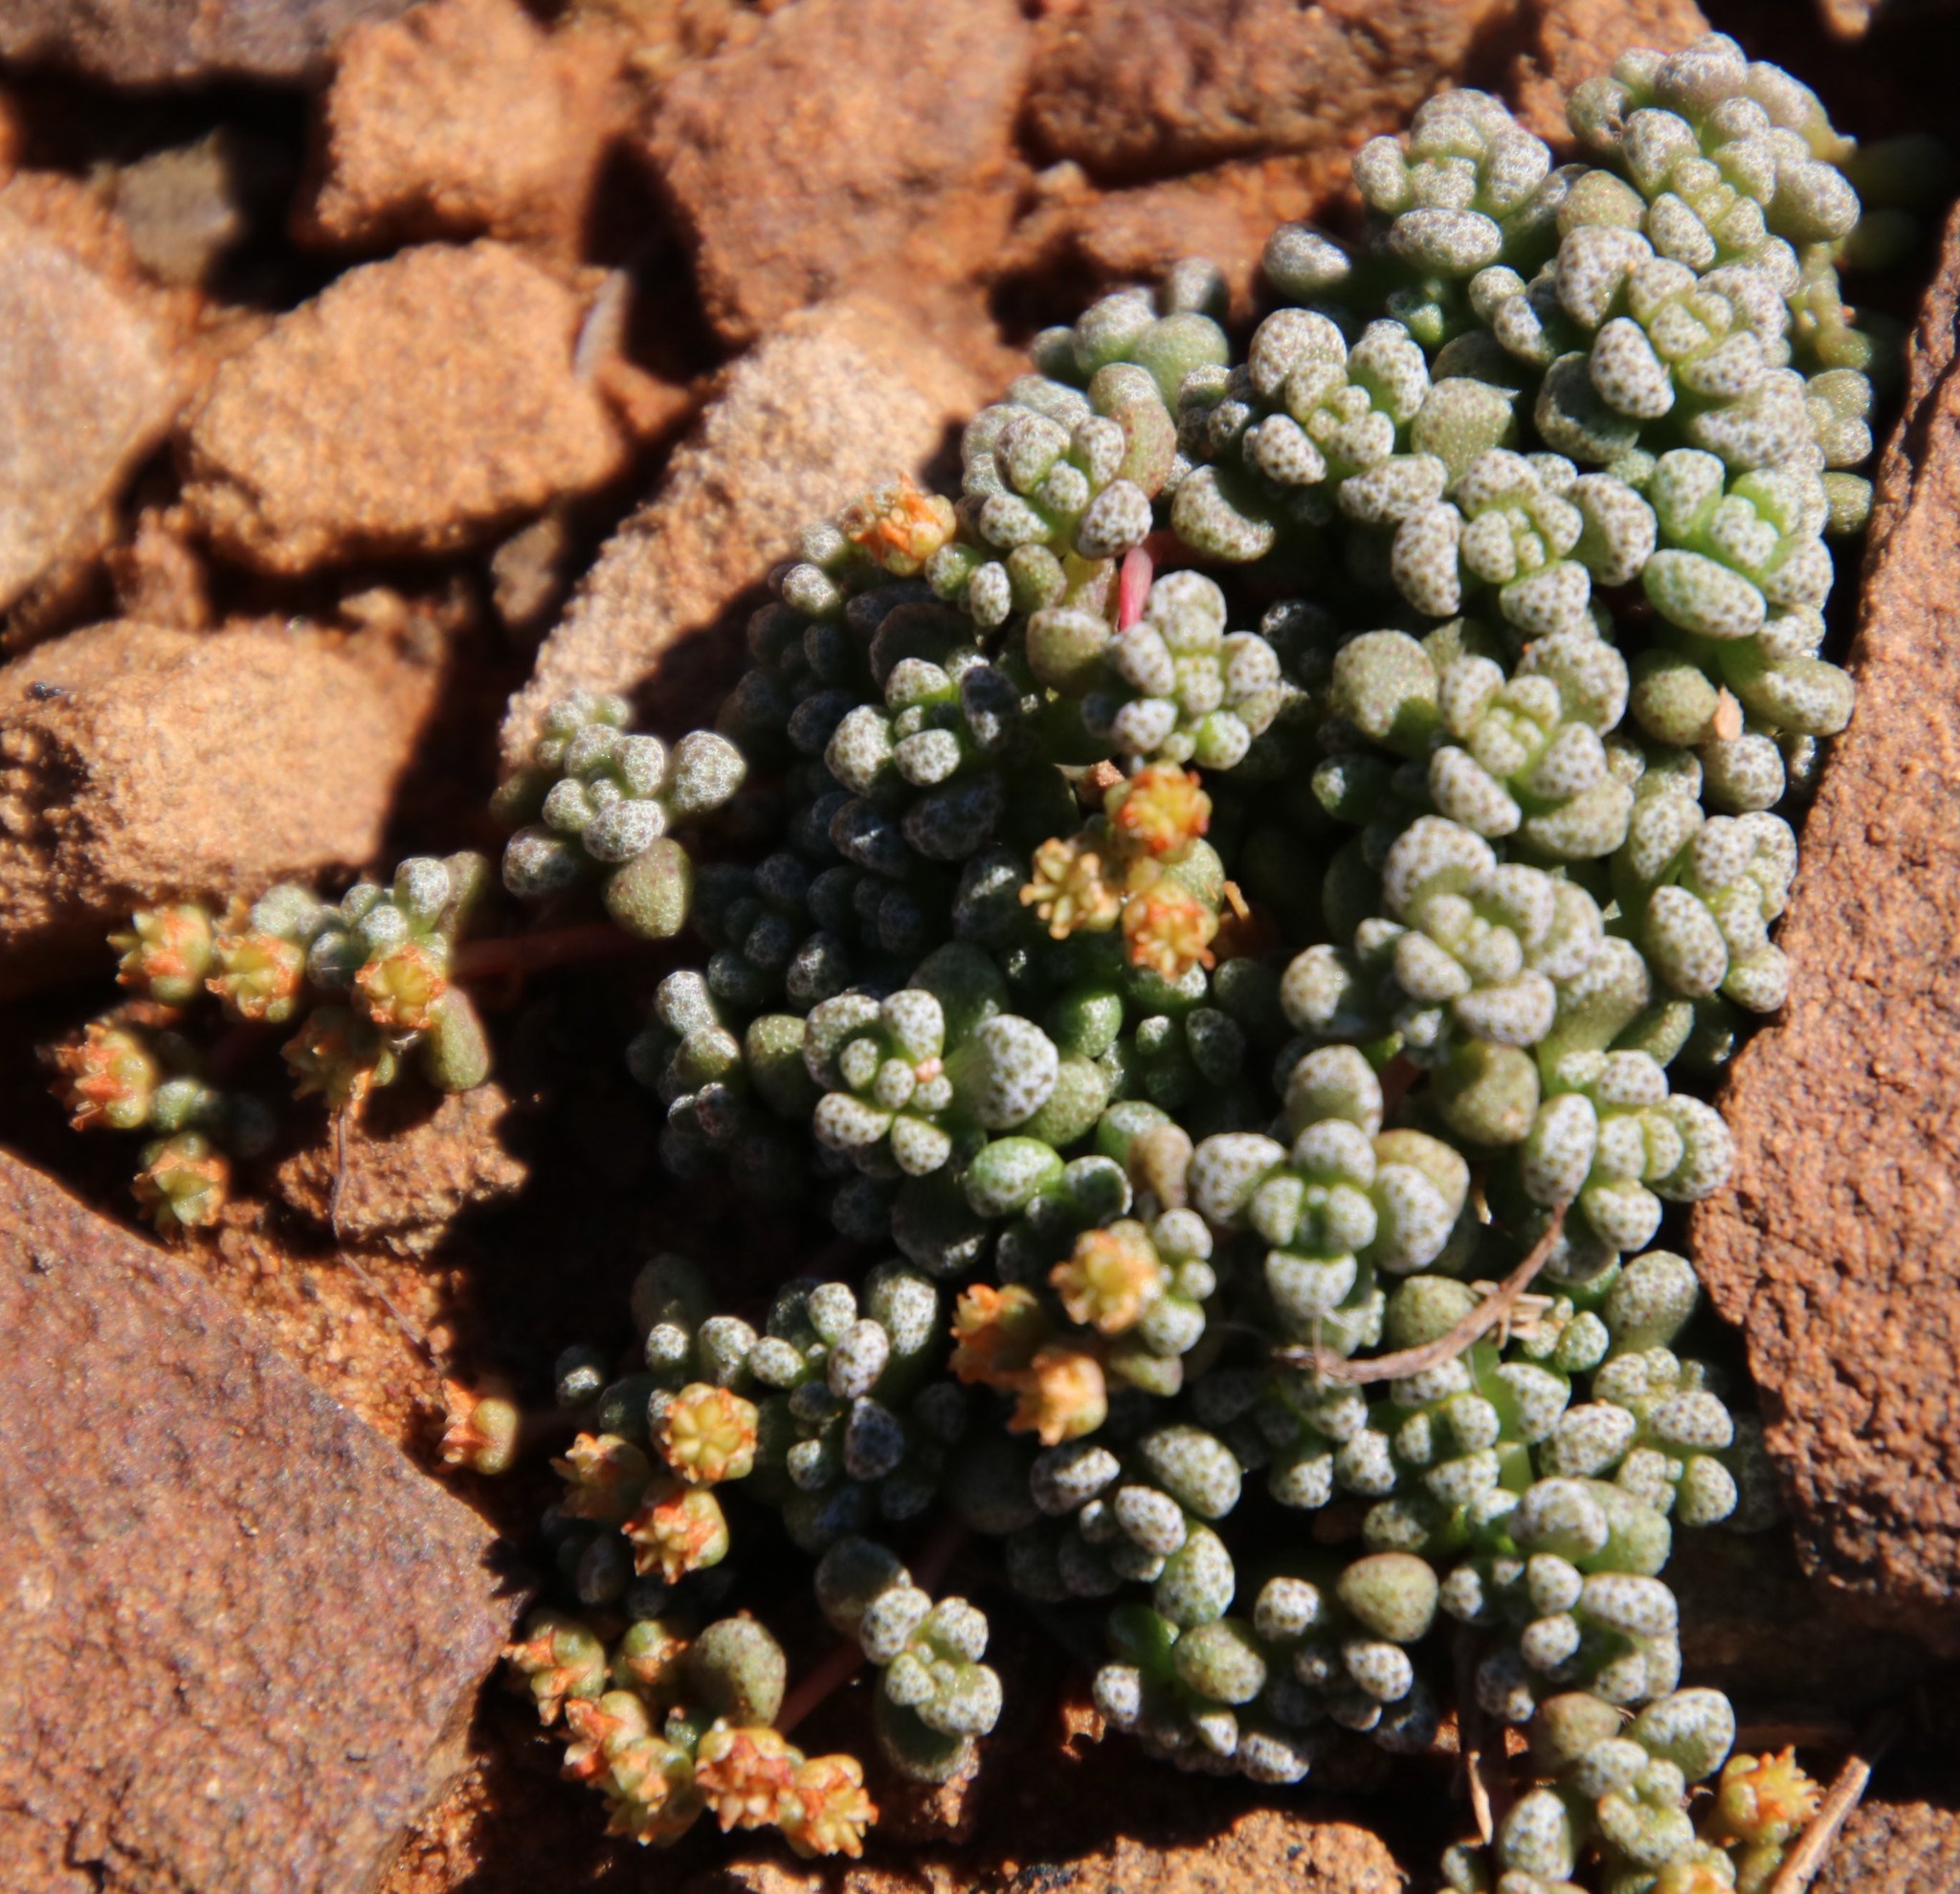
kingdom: Plantae
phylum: Tracheophyta
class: Magnoliopsida
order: Saxifragales
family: Crassulaceae
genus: Crassula
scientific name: Crassula corallina
